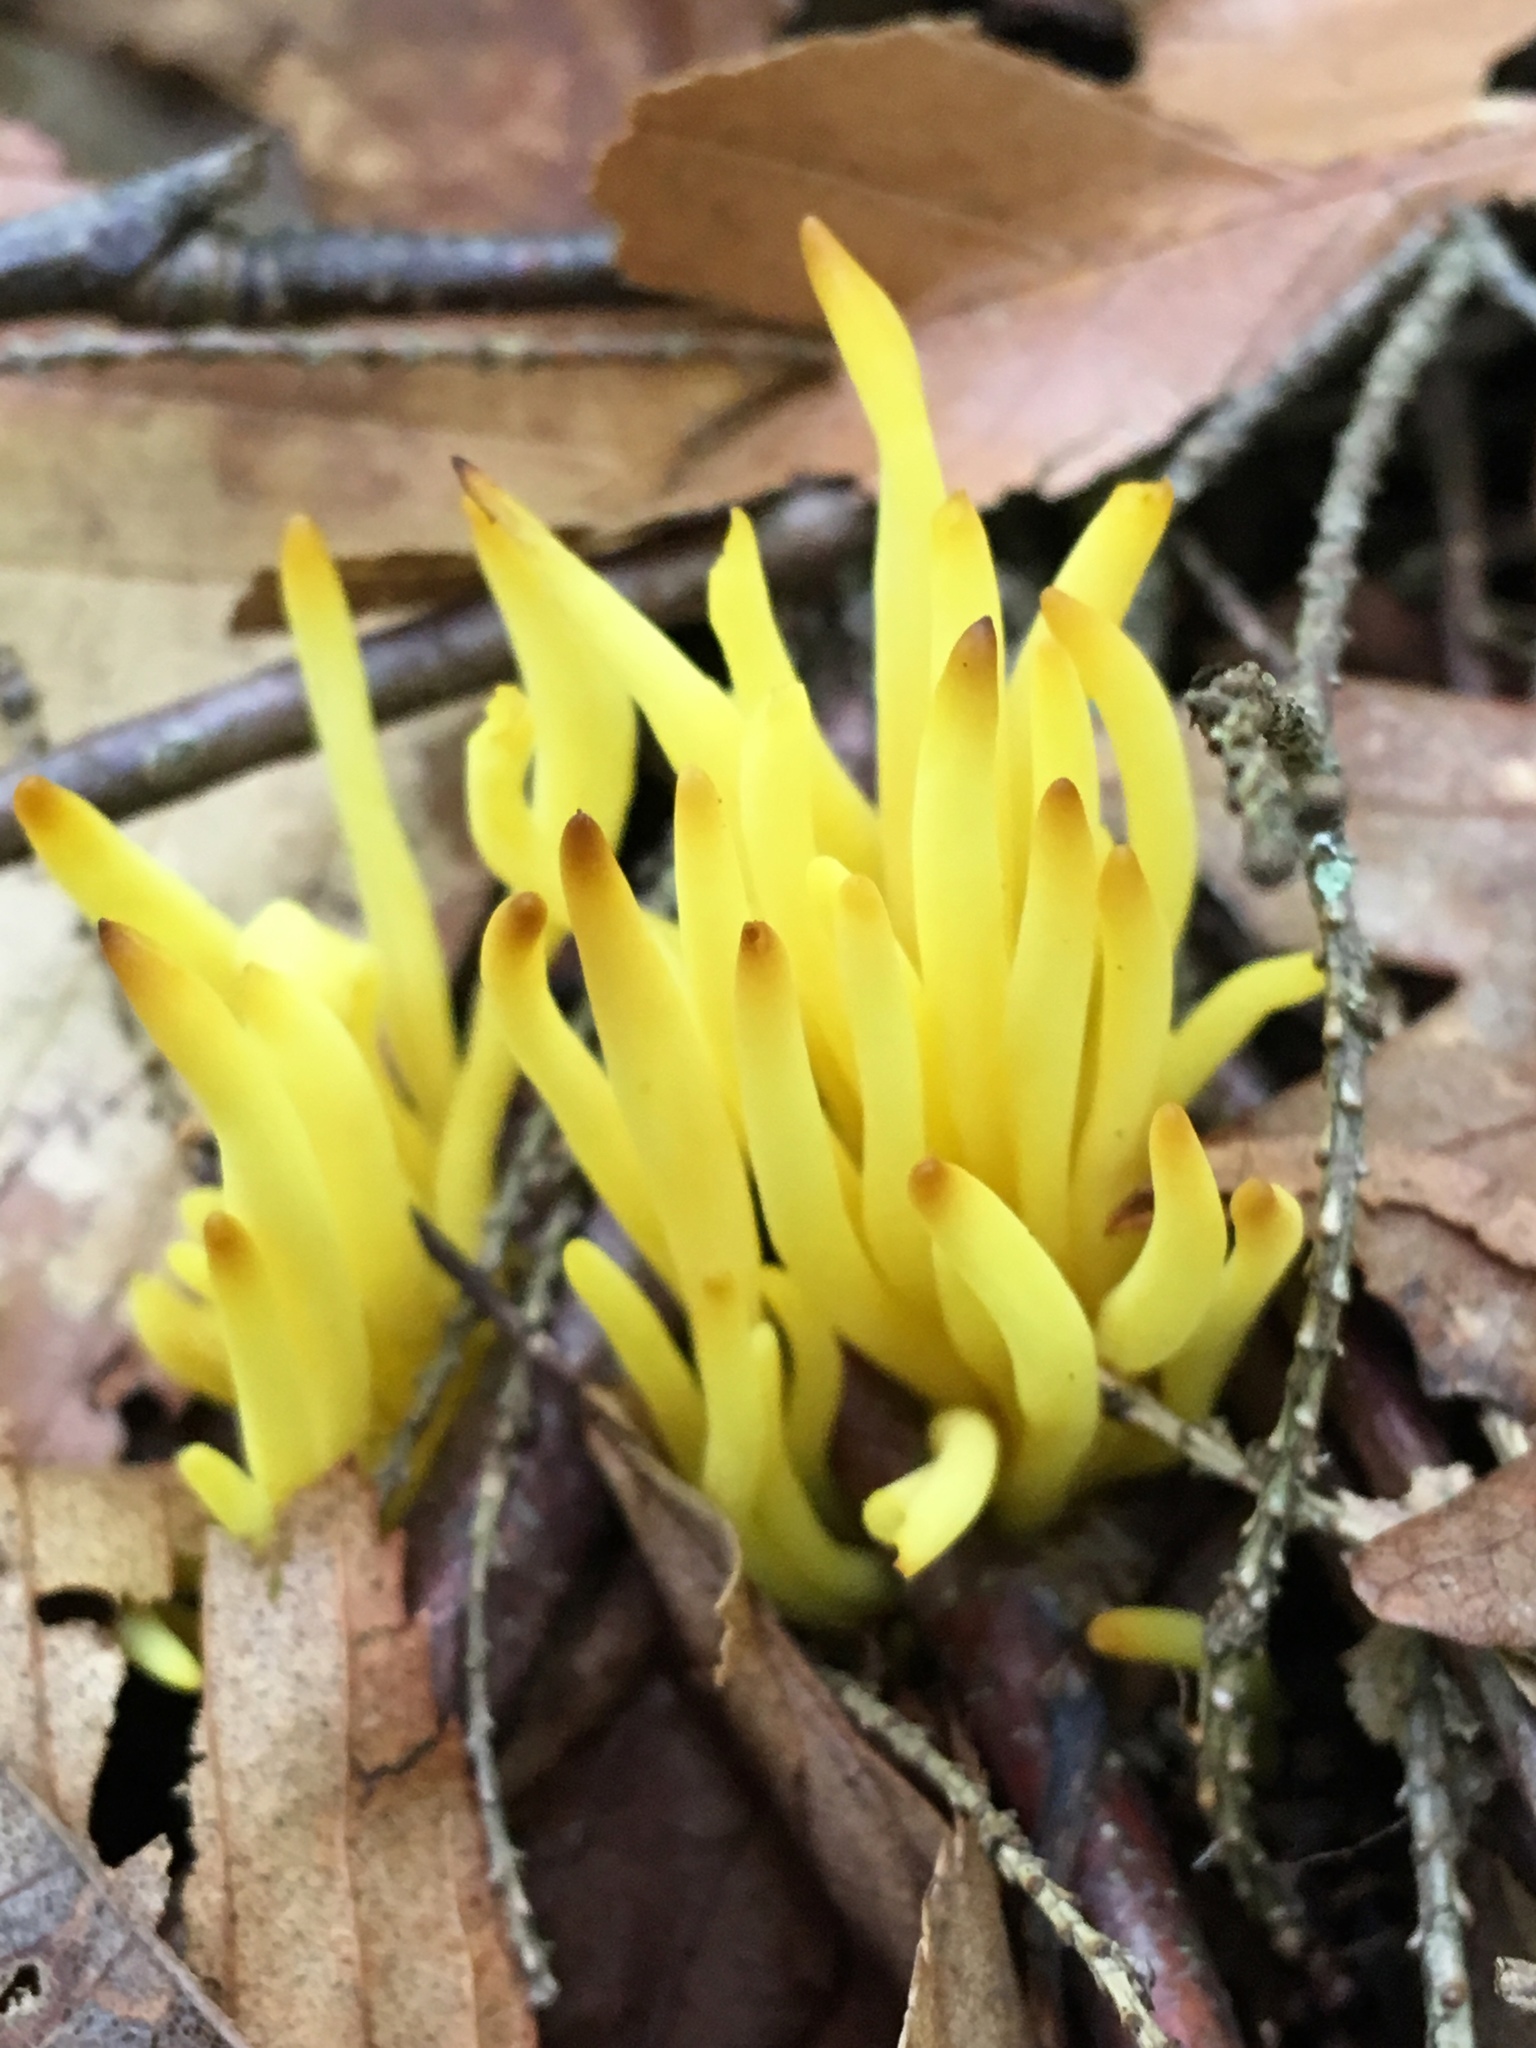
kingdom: Fungi
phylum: Basidiomycota
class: Agaricomycetes
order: Agaricales
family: Clavariaceae
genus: Clavulinopsis
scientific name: Clavulinopsis fusiformis
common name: Golden spindles
